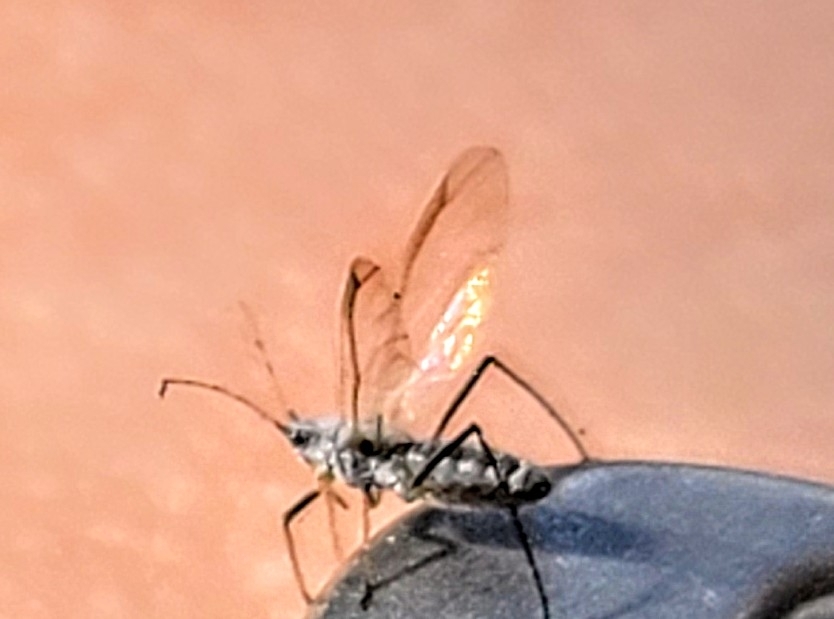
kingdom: Animalia
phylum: Arthropoda
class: Insecta
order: Hemiptera
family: Aphididae
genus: Eulachnus
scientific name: Eulachnus rileyi
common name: Active gray pine needle aphid
